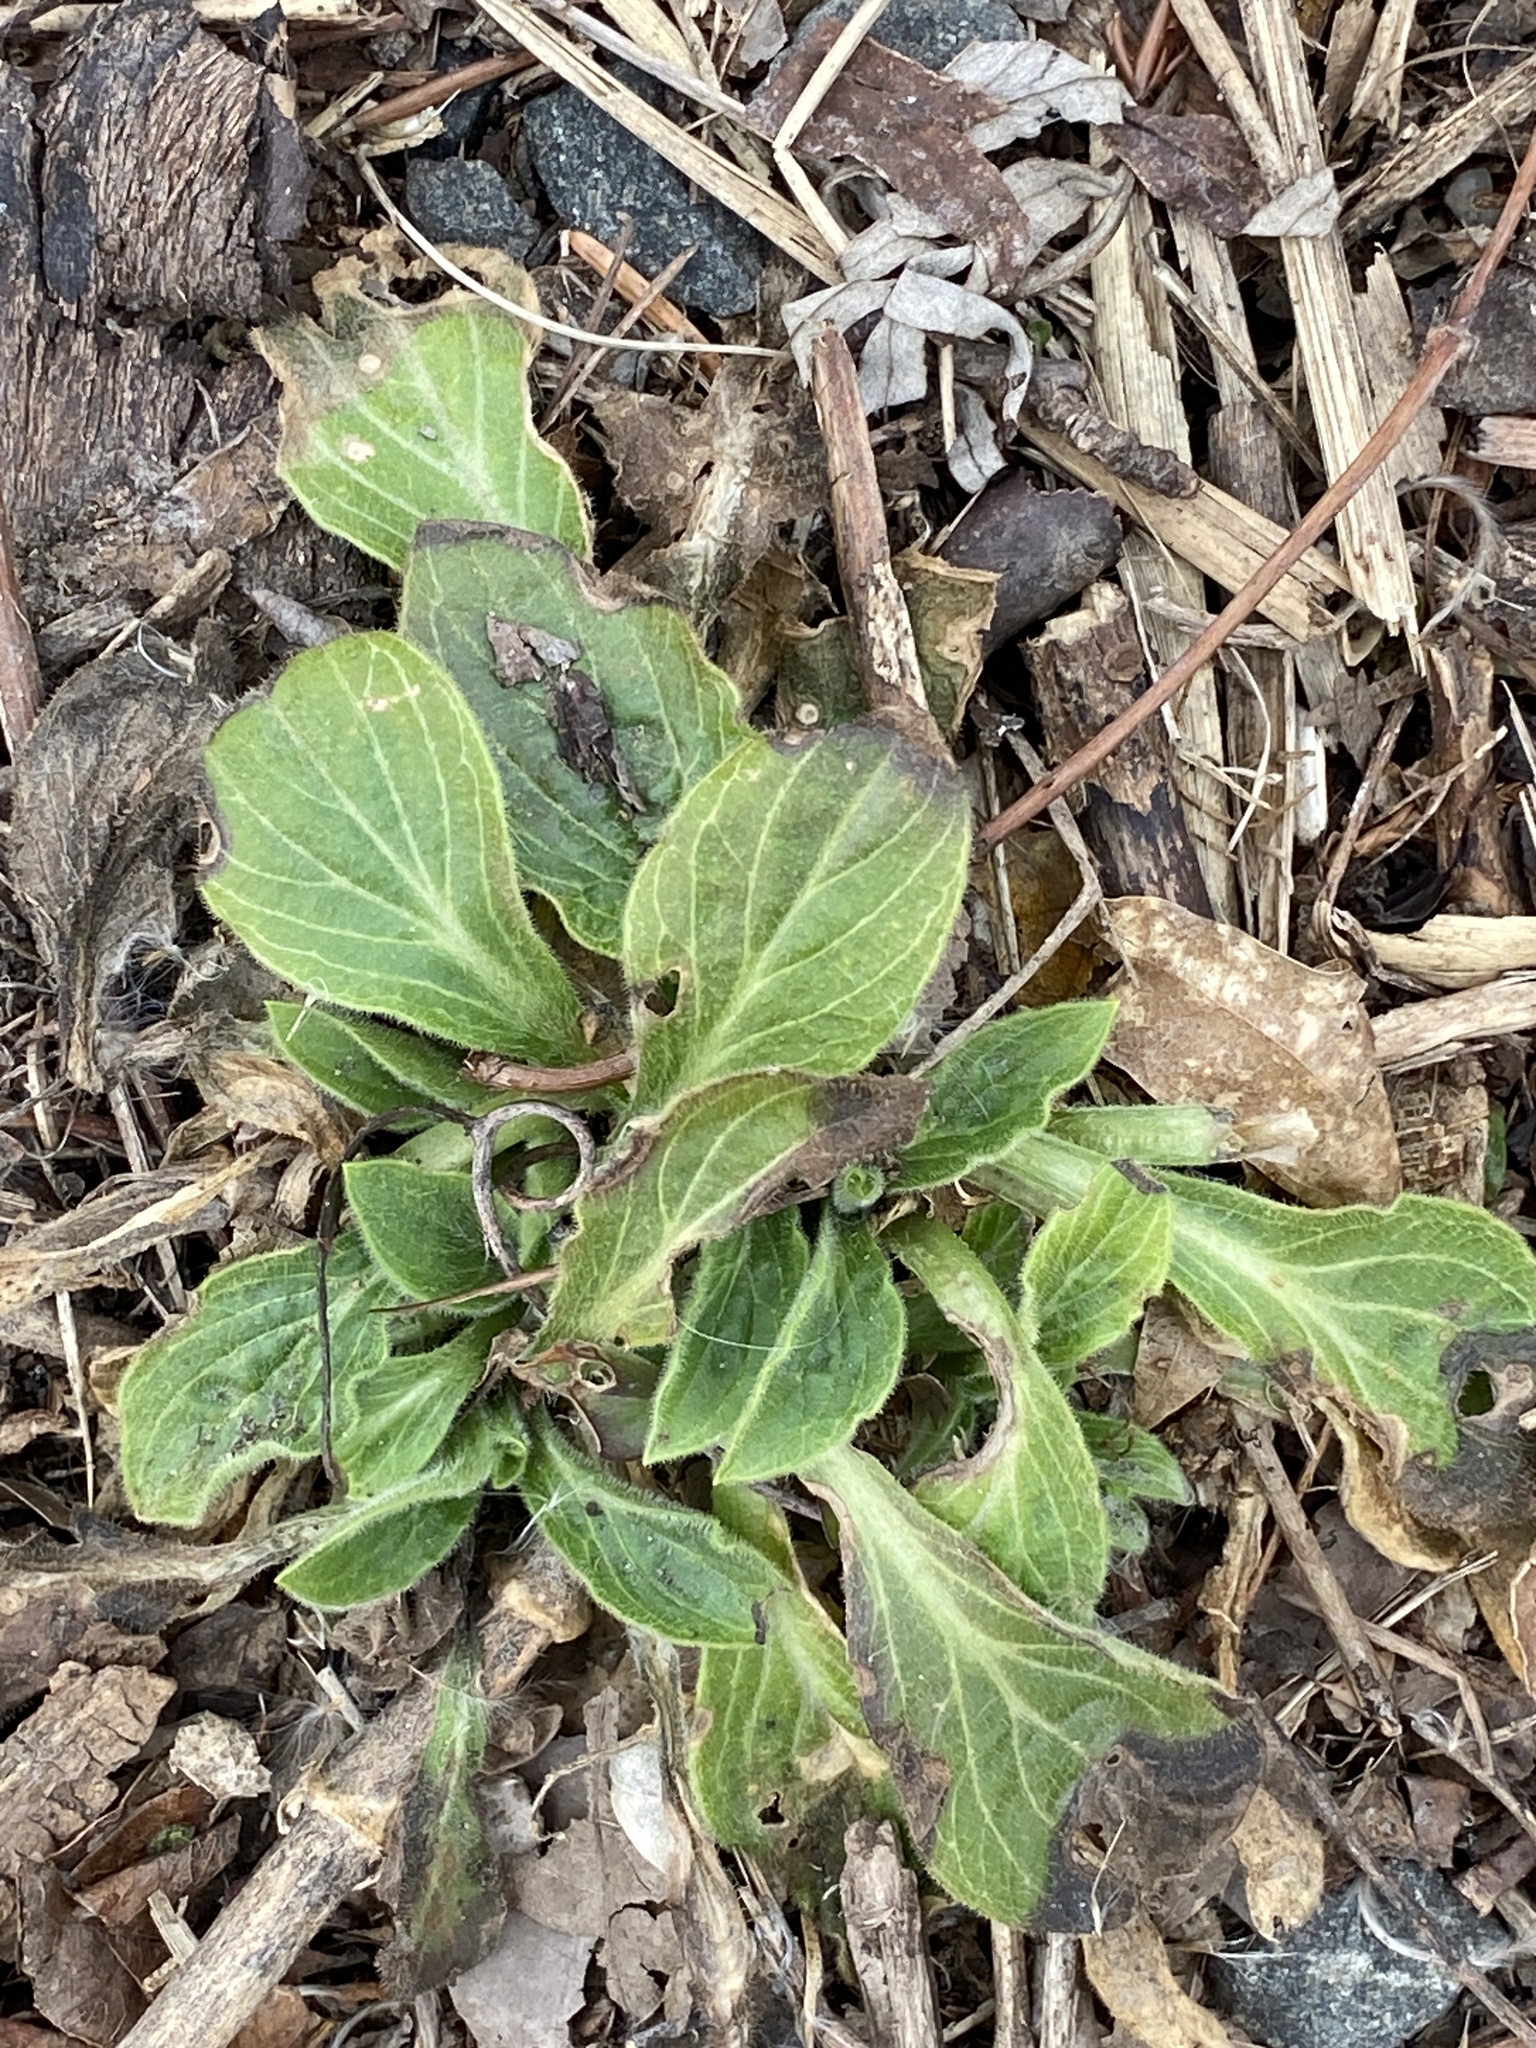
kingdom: Plantae
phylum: Tracheophyta
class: Magnoliopsida
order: Caryophyllales
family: Caryophyllaceae
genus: Silene
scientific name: Silene latifolia
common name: White campion
